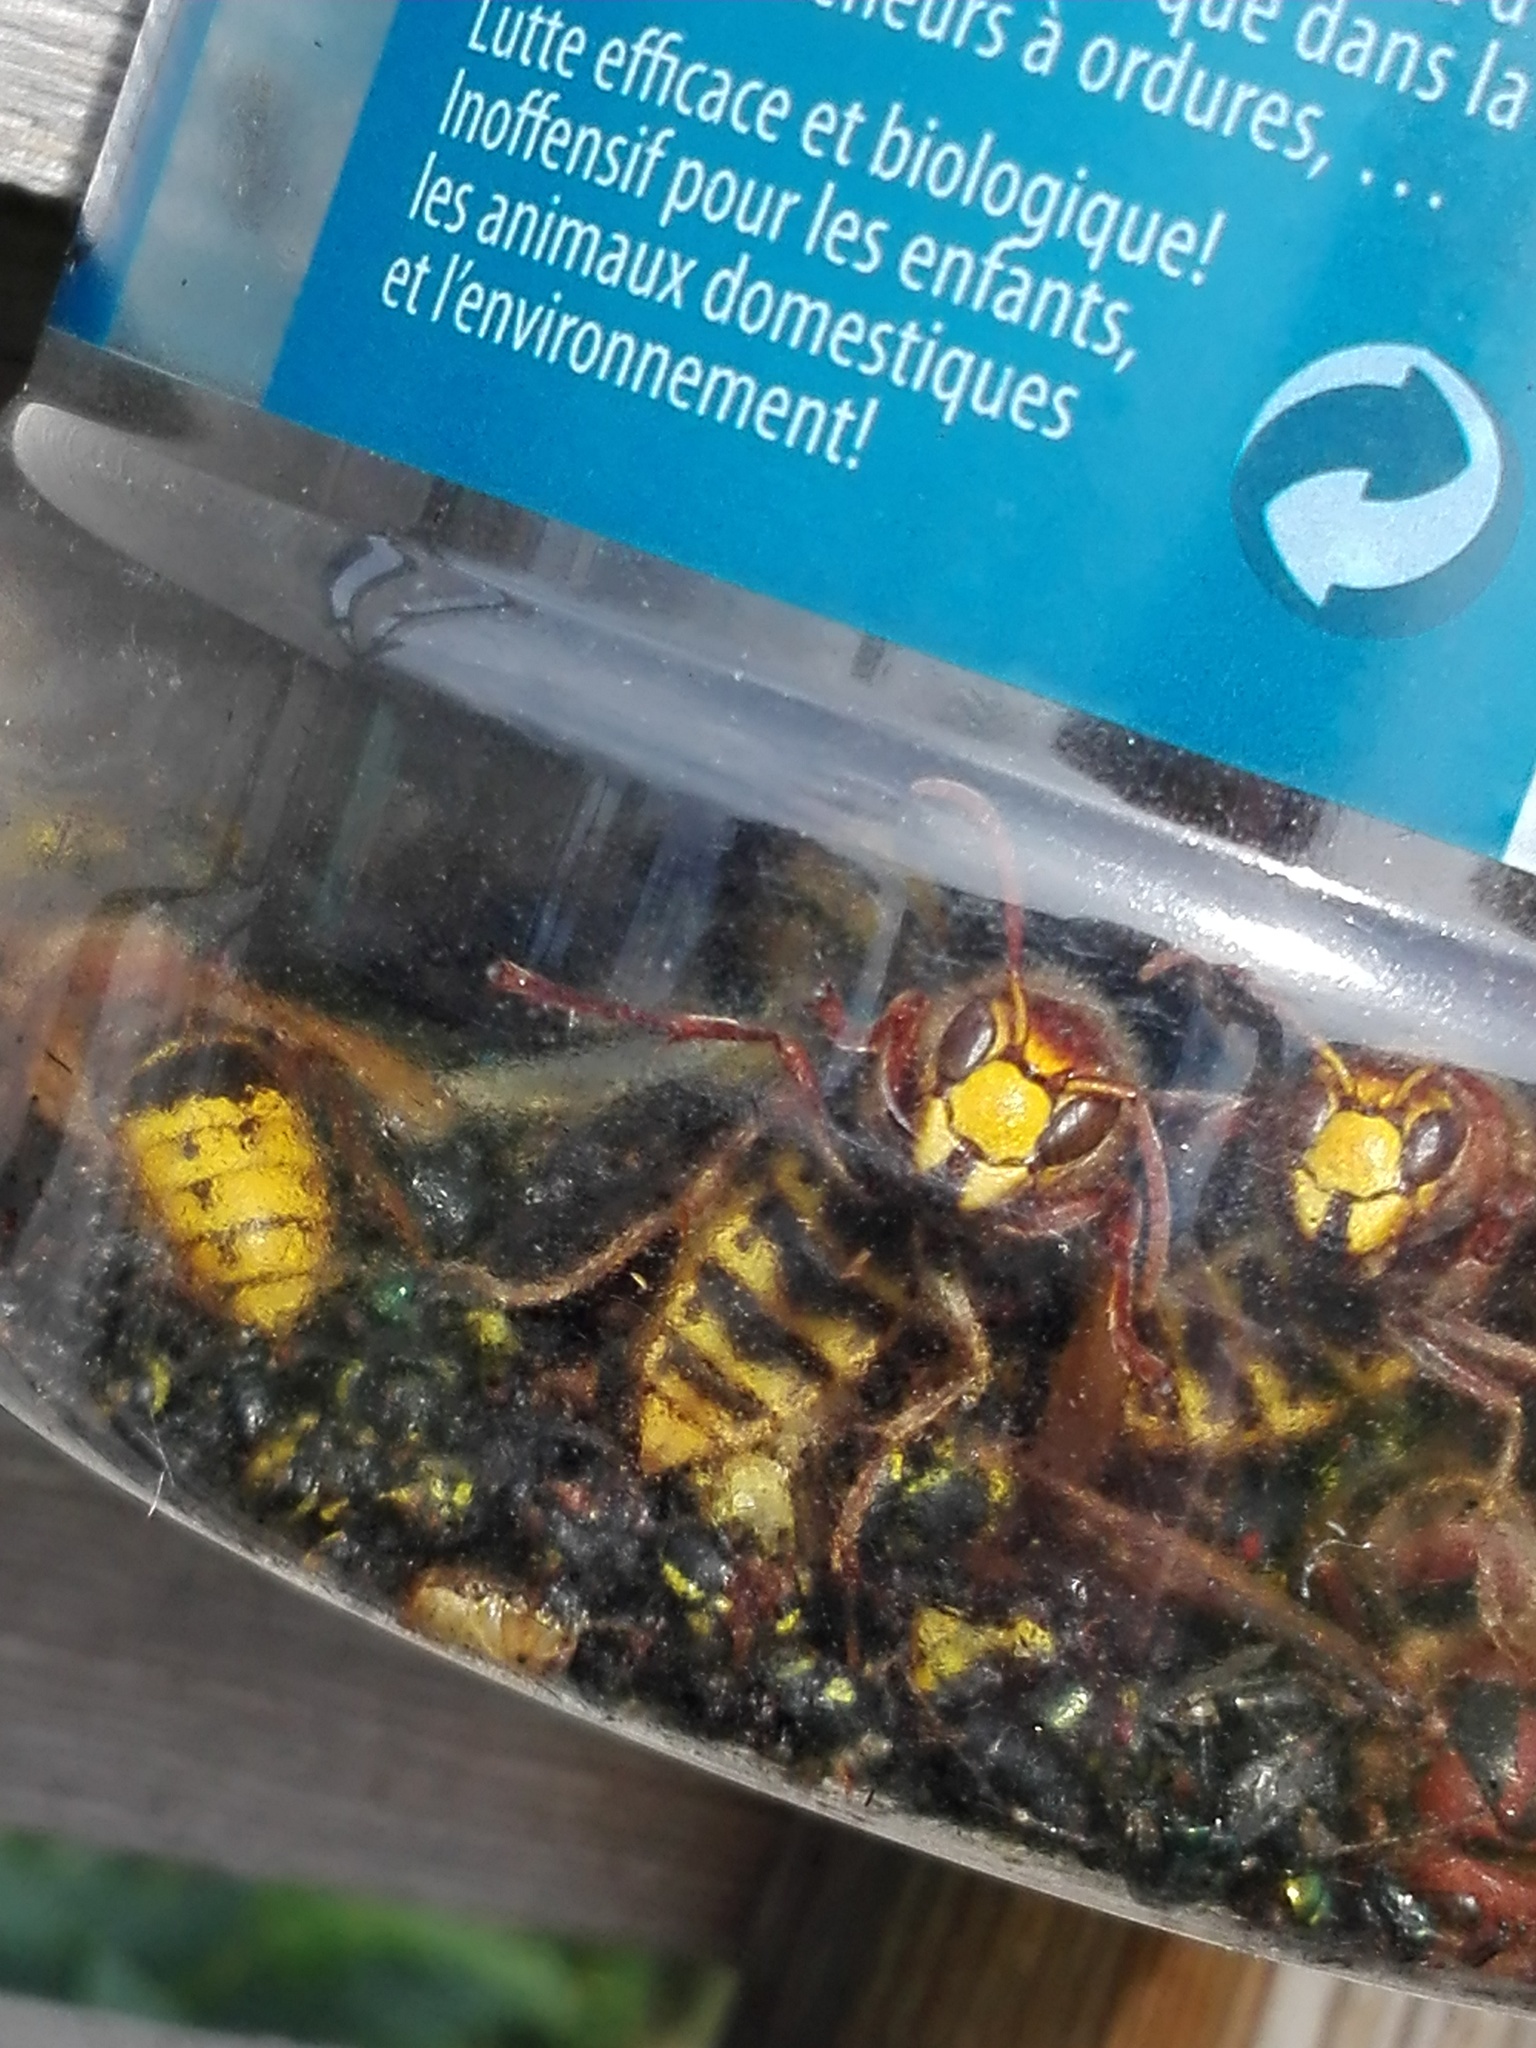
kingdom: Animalia
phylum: Arthropoda
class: Insecta
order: Hymenoptera
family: Vespidae
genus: Vespa
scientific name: Vespa crabro
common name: Hornet
